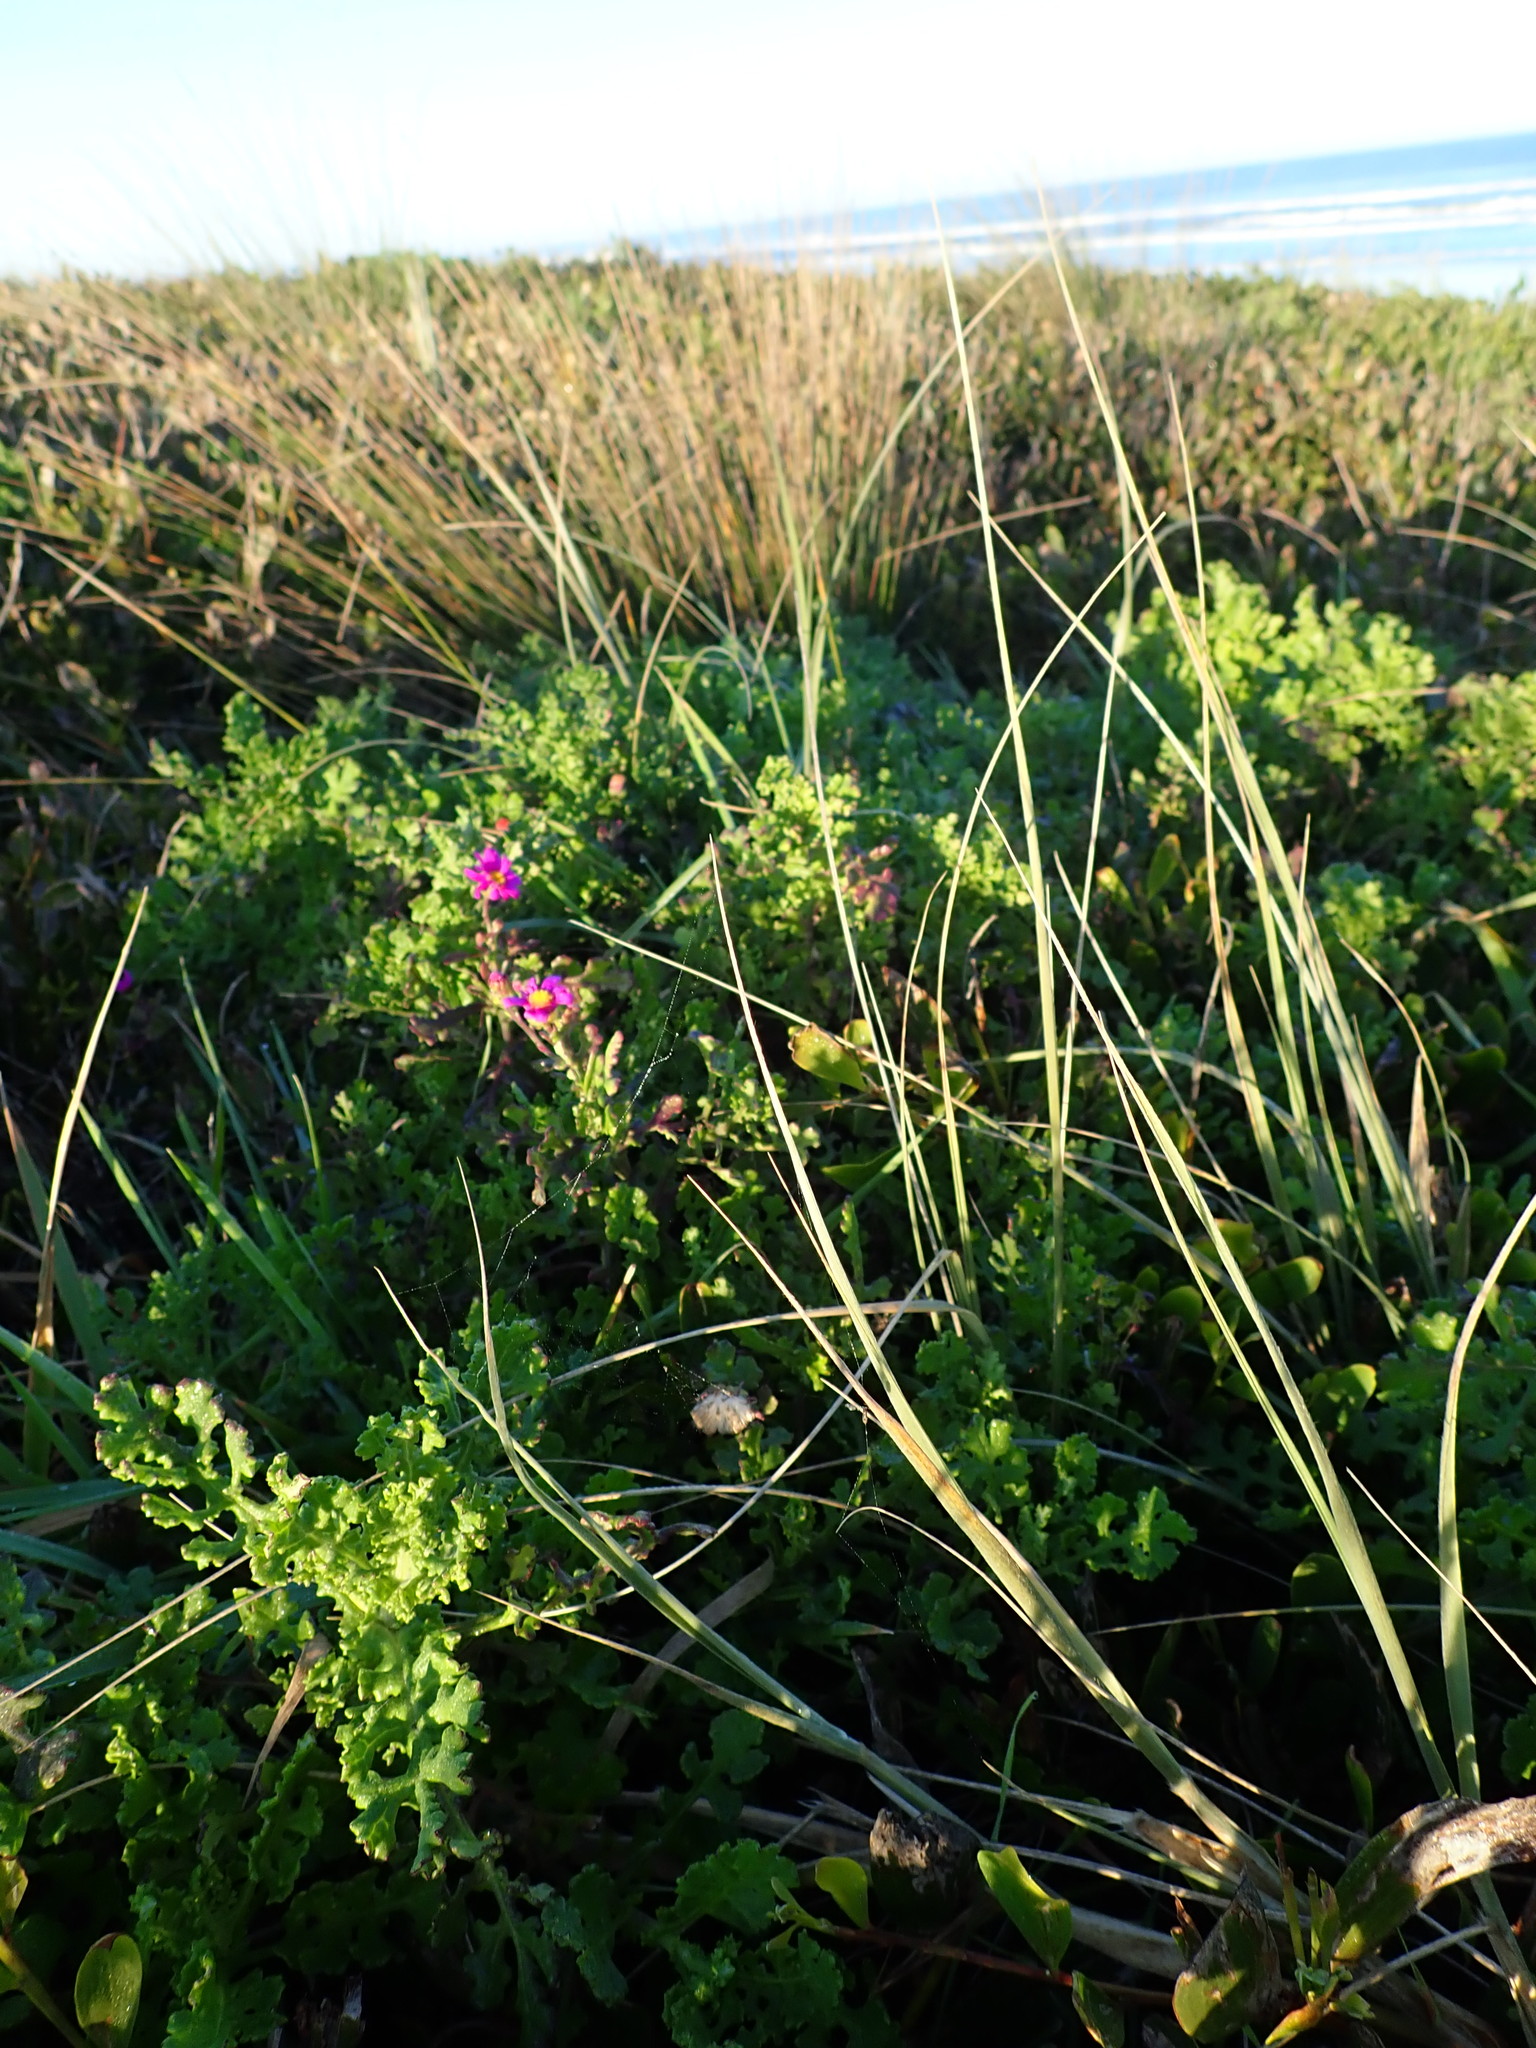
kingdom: Plantae
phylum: Tracheophyta
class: Magnoliopsida
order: Asterales
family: Asteraceae
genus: Senecio
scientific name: Senecio elegans
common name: Purple groundsel
